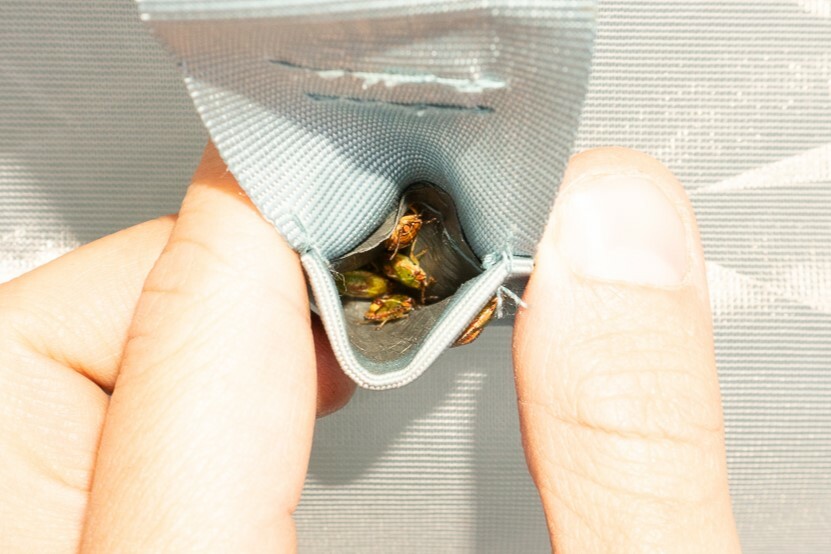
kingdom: Animalia
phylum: Arthropoda
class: Insecta
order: Hemiptera
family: Acanthosomatidae
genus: Sinopla
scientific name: Sinopla perpunctatus
